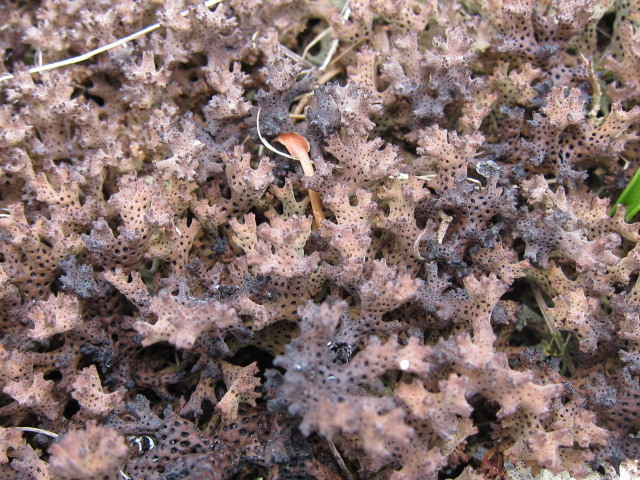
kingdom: Fungi
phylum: Ascomycota
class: Lecanoromycetes
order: Lecanorales
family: Cladoniaceae
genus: Rexiella
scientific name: Rexiella sullivanii
